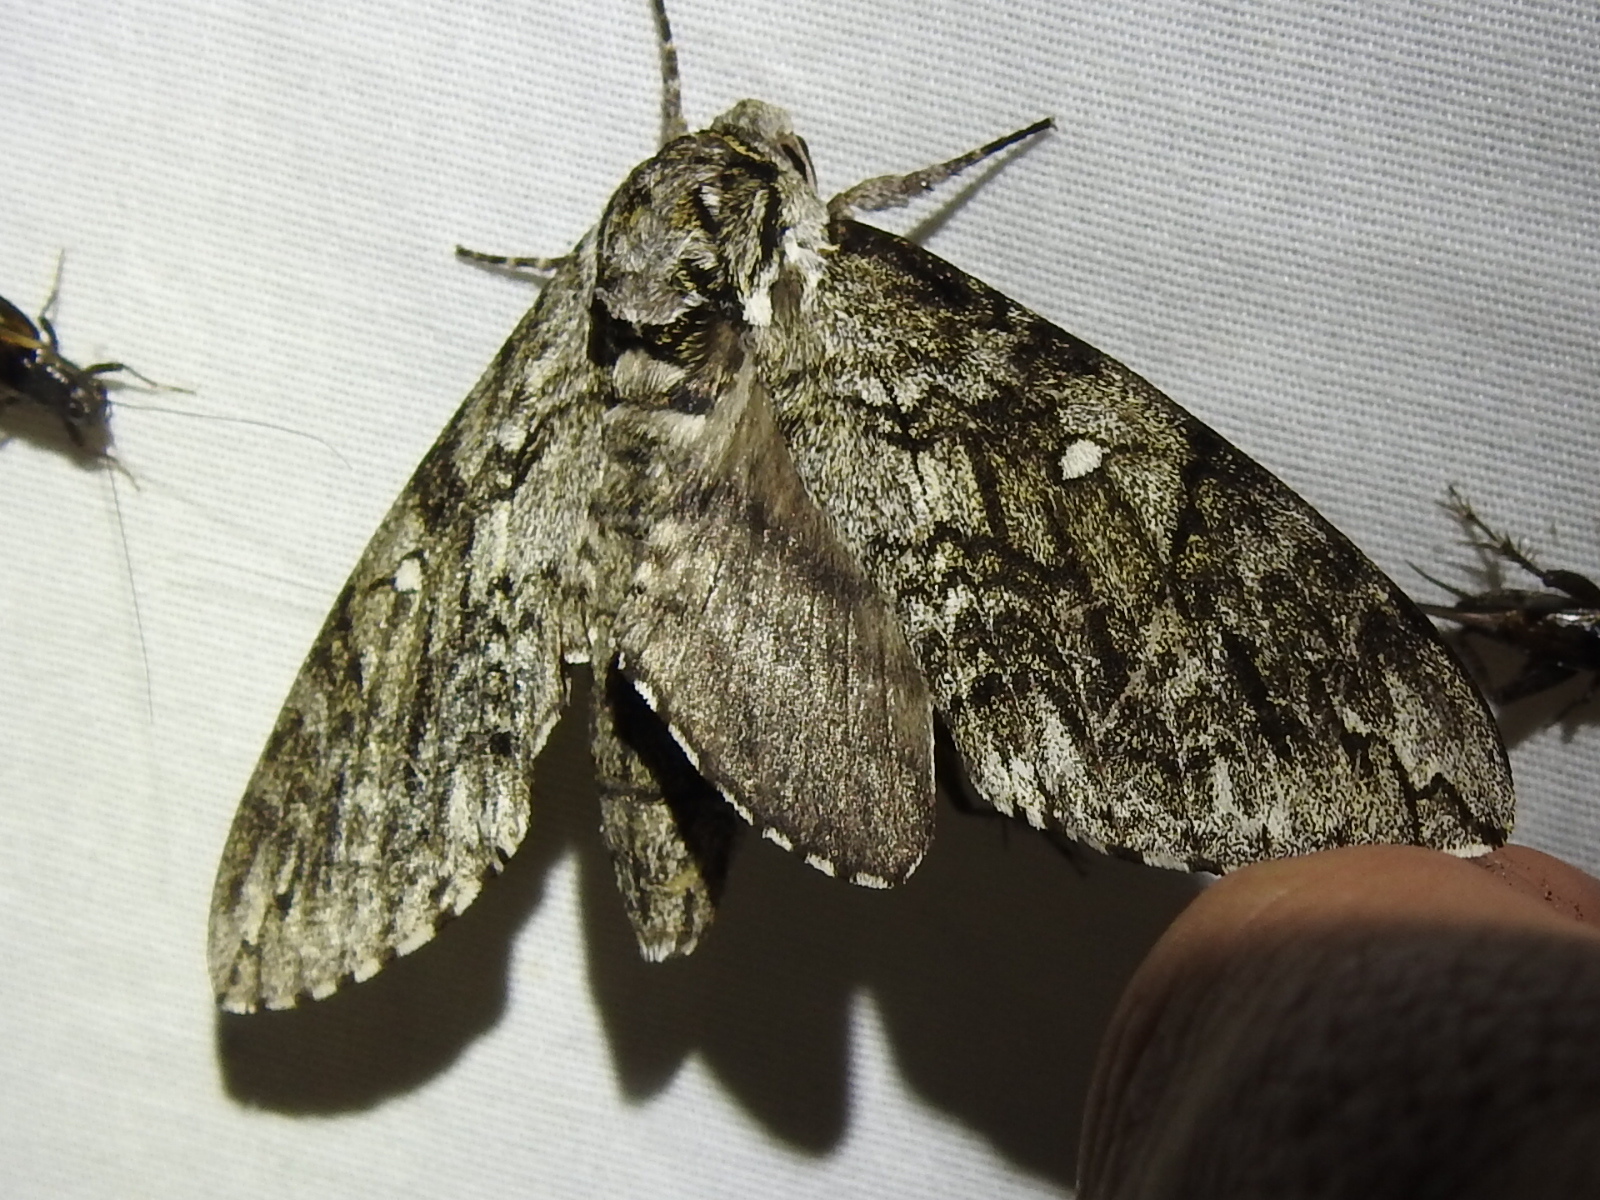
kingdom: Animalia
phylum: Arthropoda
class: Insecta
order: Lepidoptera
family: Sphingidae
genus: Ceratomia
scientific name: Ceratomia undulosa
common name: Waved sphinx
